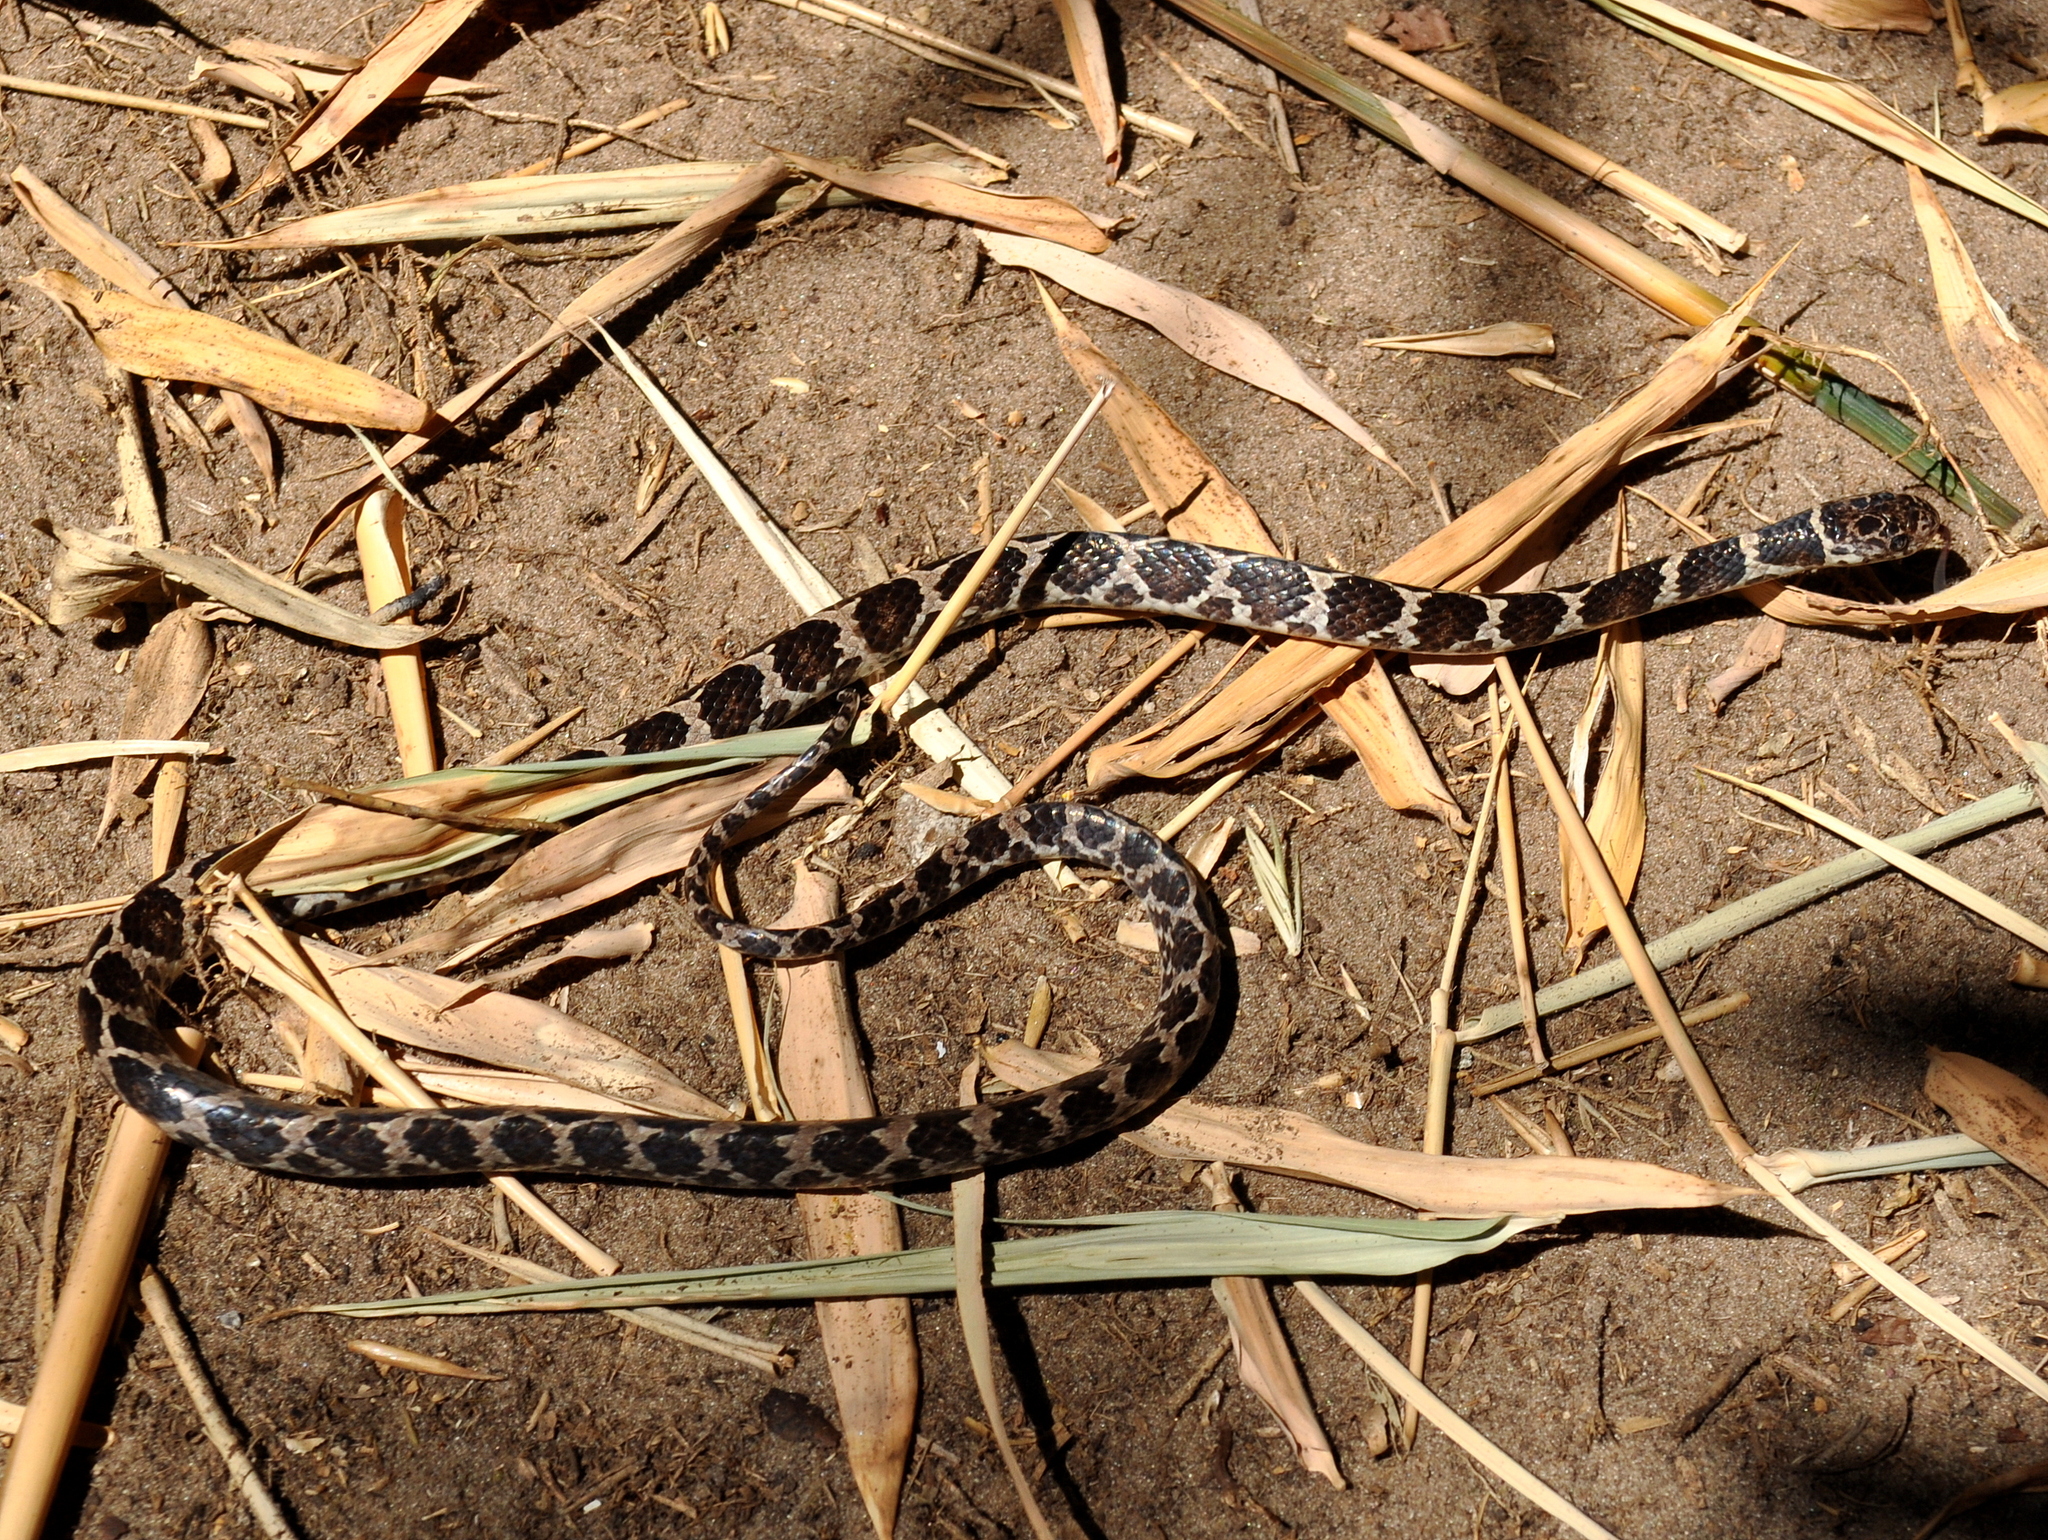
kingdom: Animalia
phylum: Chordata
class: Squamata
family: Colubridae
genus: Dipsas
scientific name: Dipsas ventrimaculata
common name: Boulenger's tree snake
